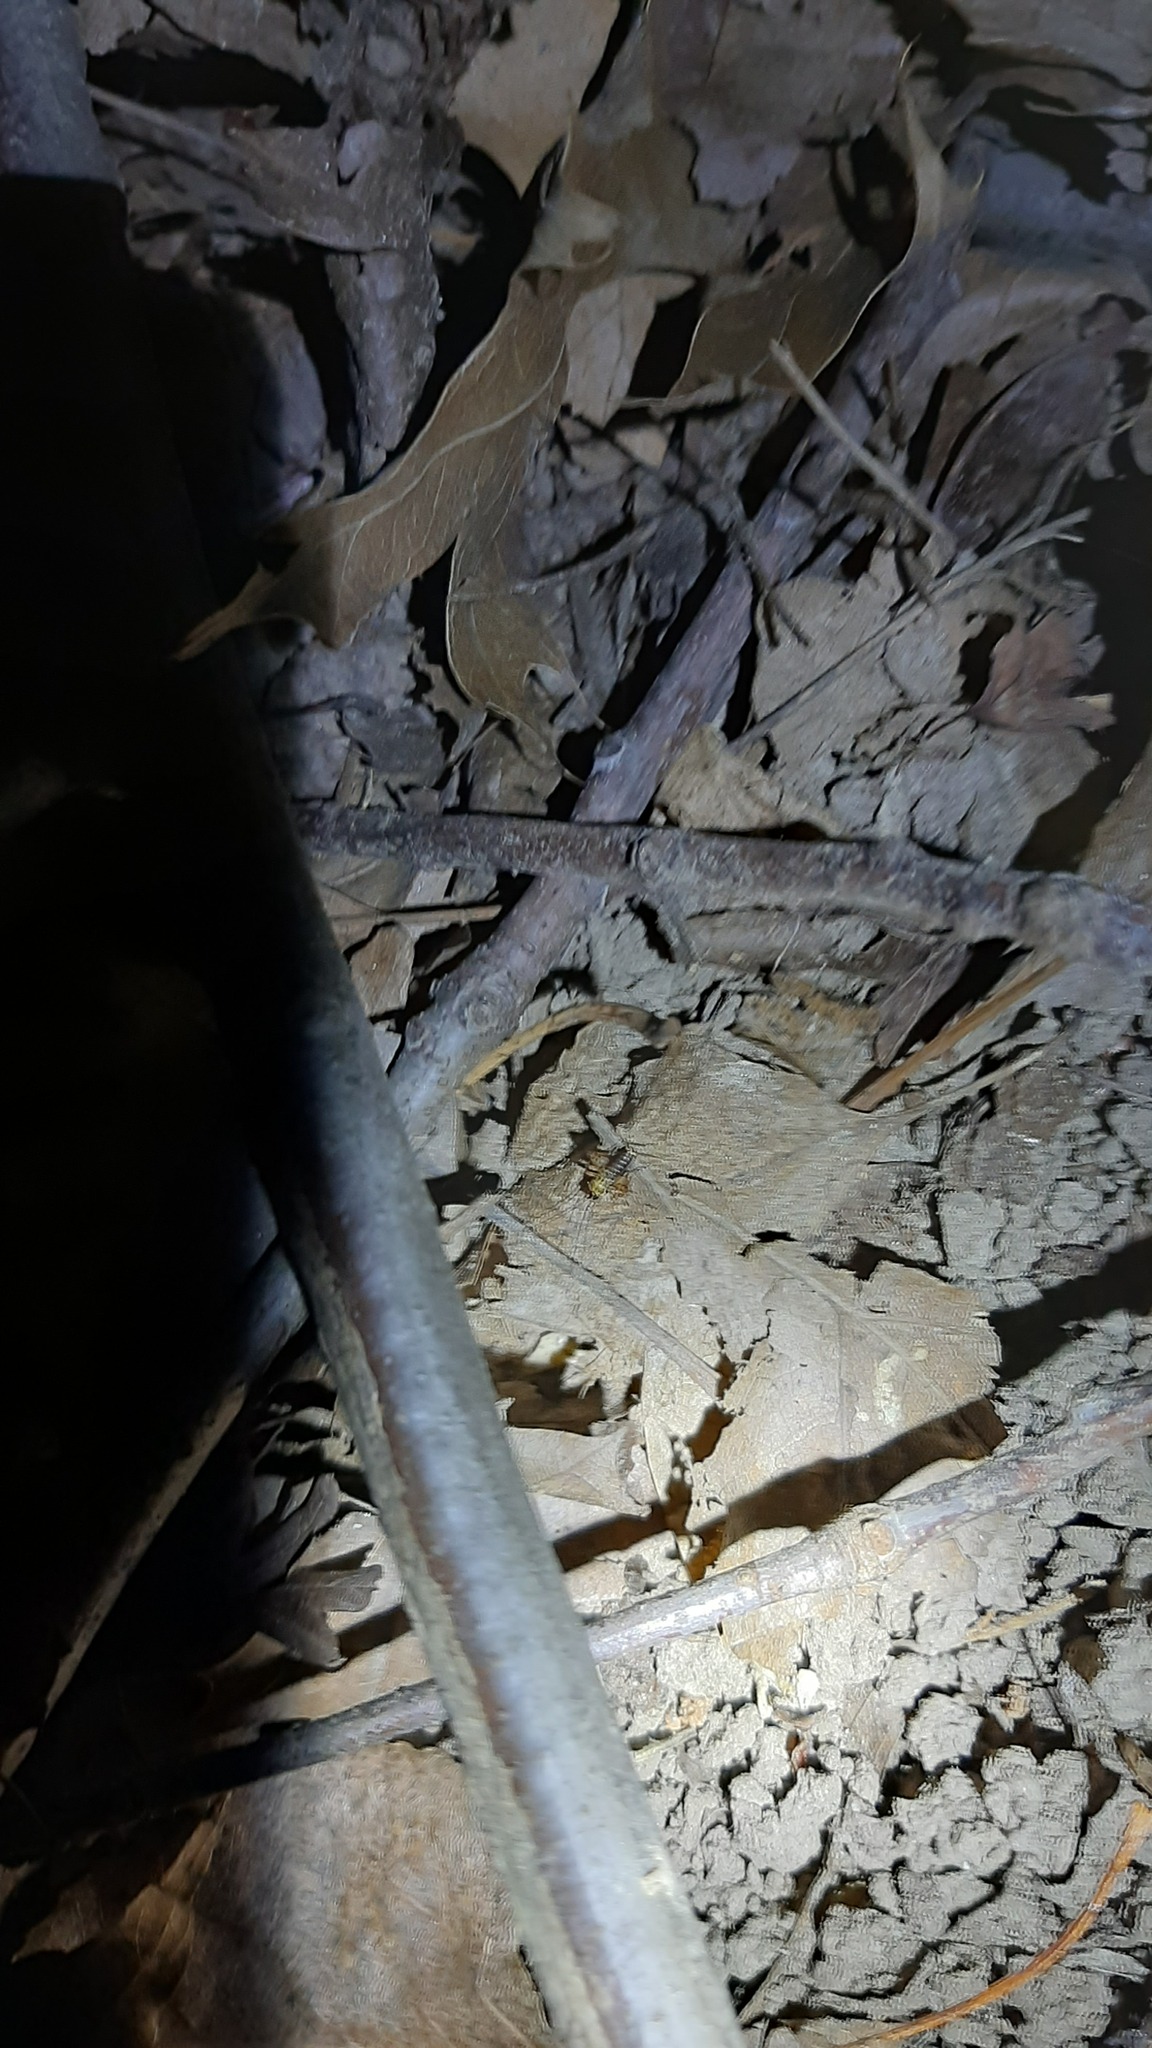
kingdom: Animalia
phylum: Arthropoda
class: Insecta
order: Orthoptera
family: Trigonidiidae
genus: Nemobius
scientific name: Nemobius sylvestris
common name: Wood-cricket
